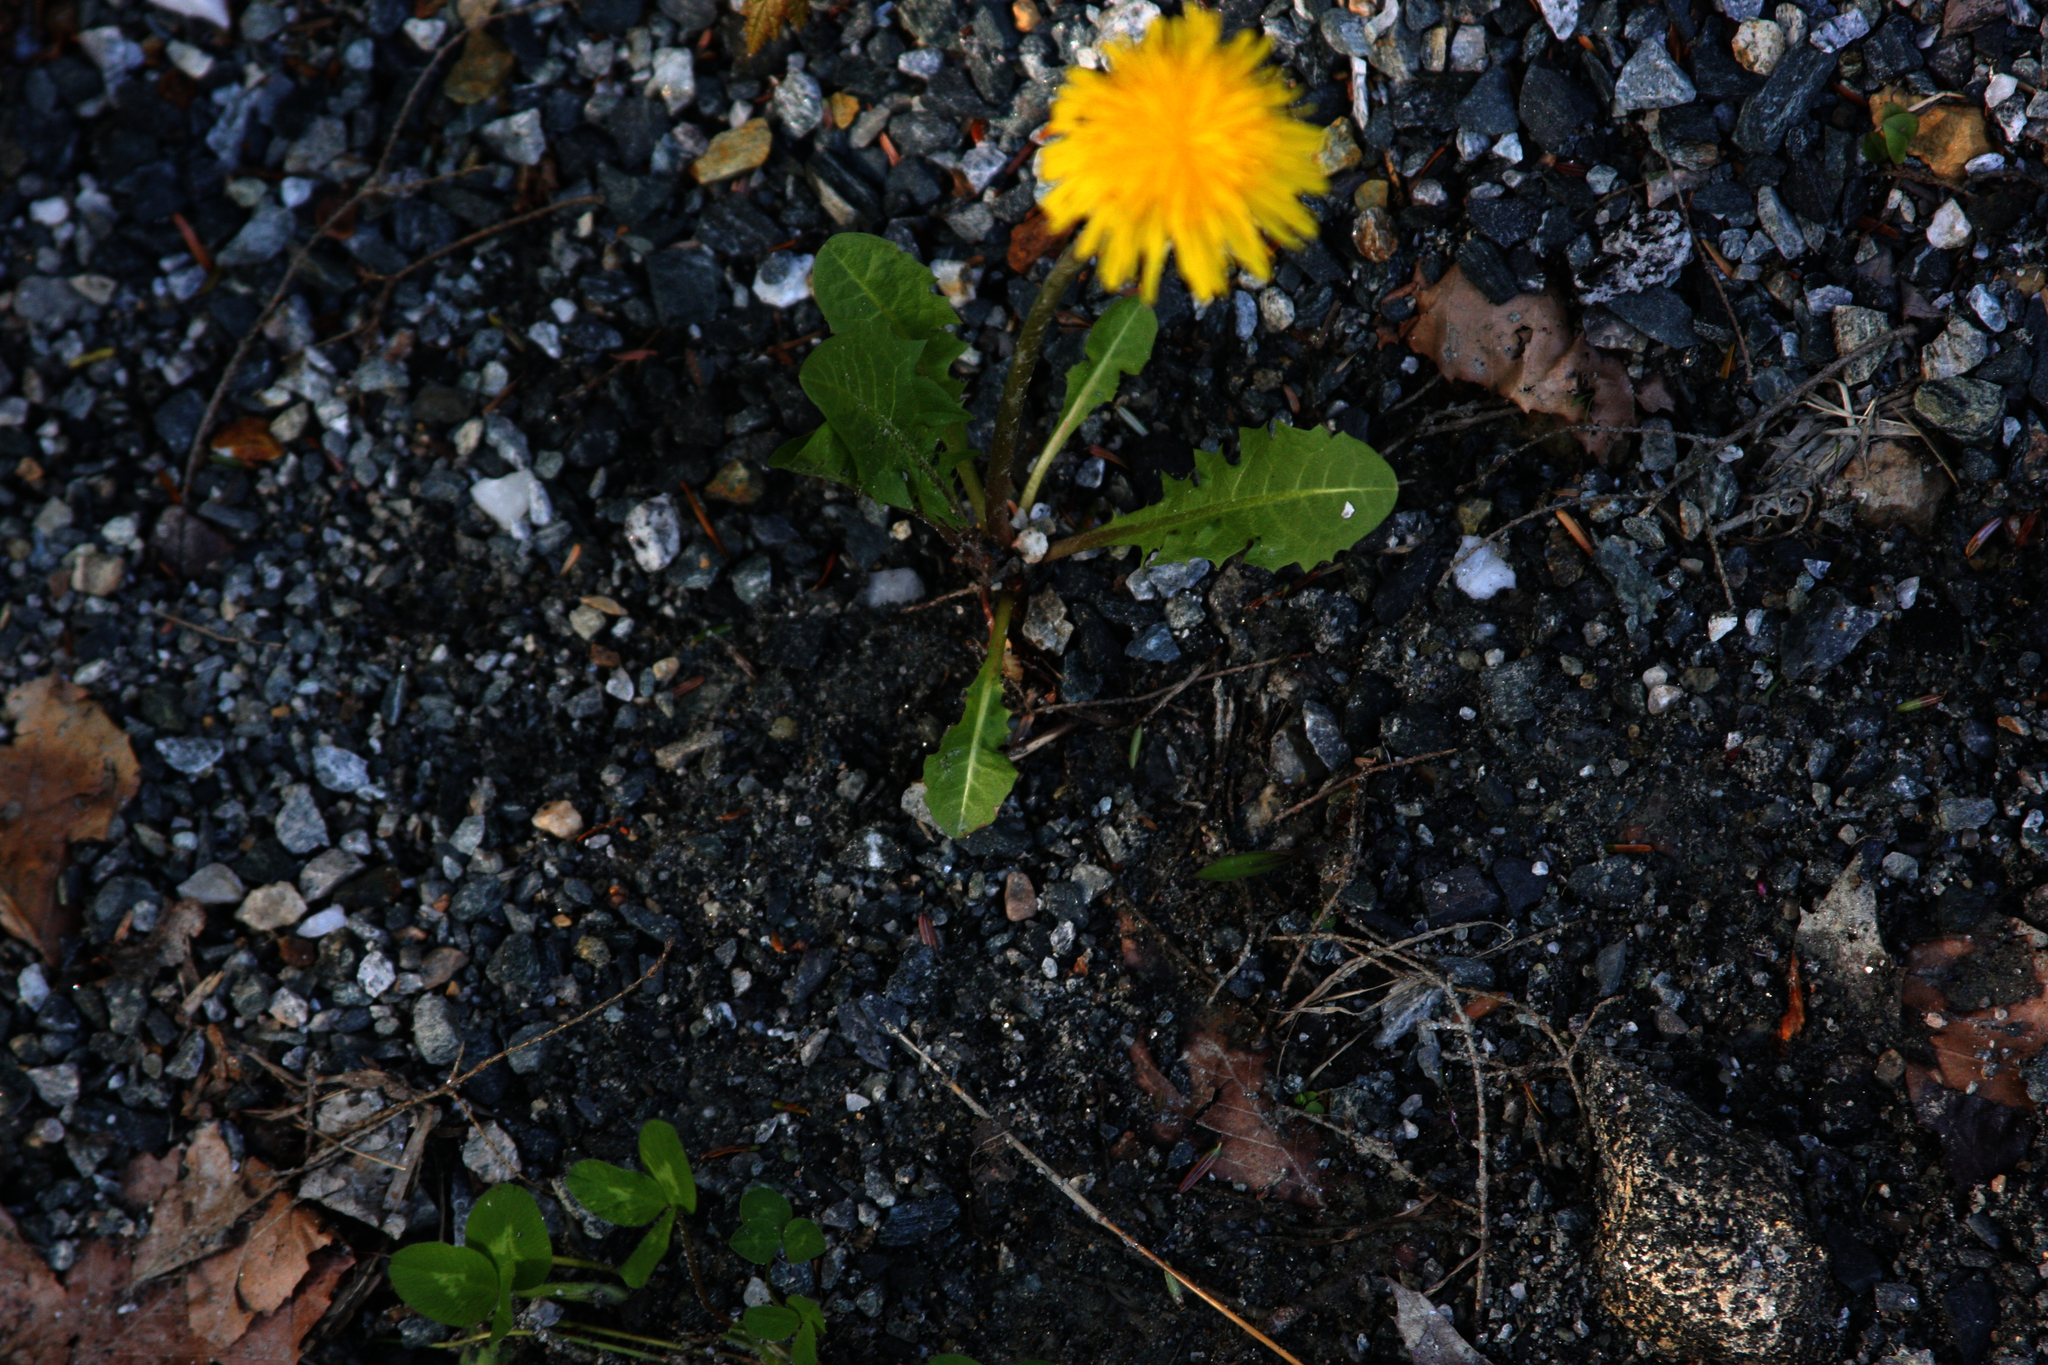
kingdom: Plantae
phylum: Tracheophyta
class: Magnoliopsida
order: Asterales
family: Asteraceae
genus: Taraxacum
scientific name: Taraxacum officinale
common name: Common dandelion
